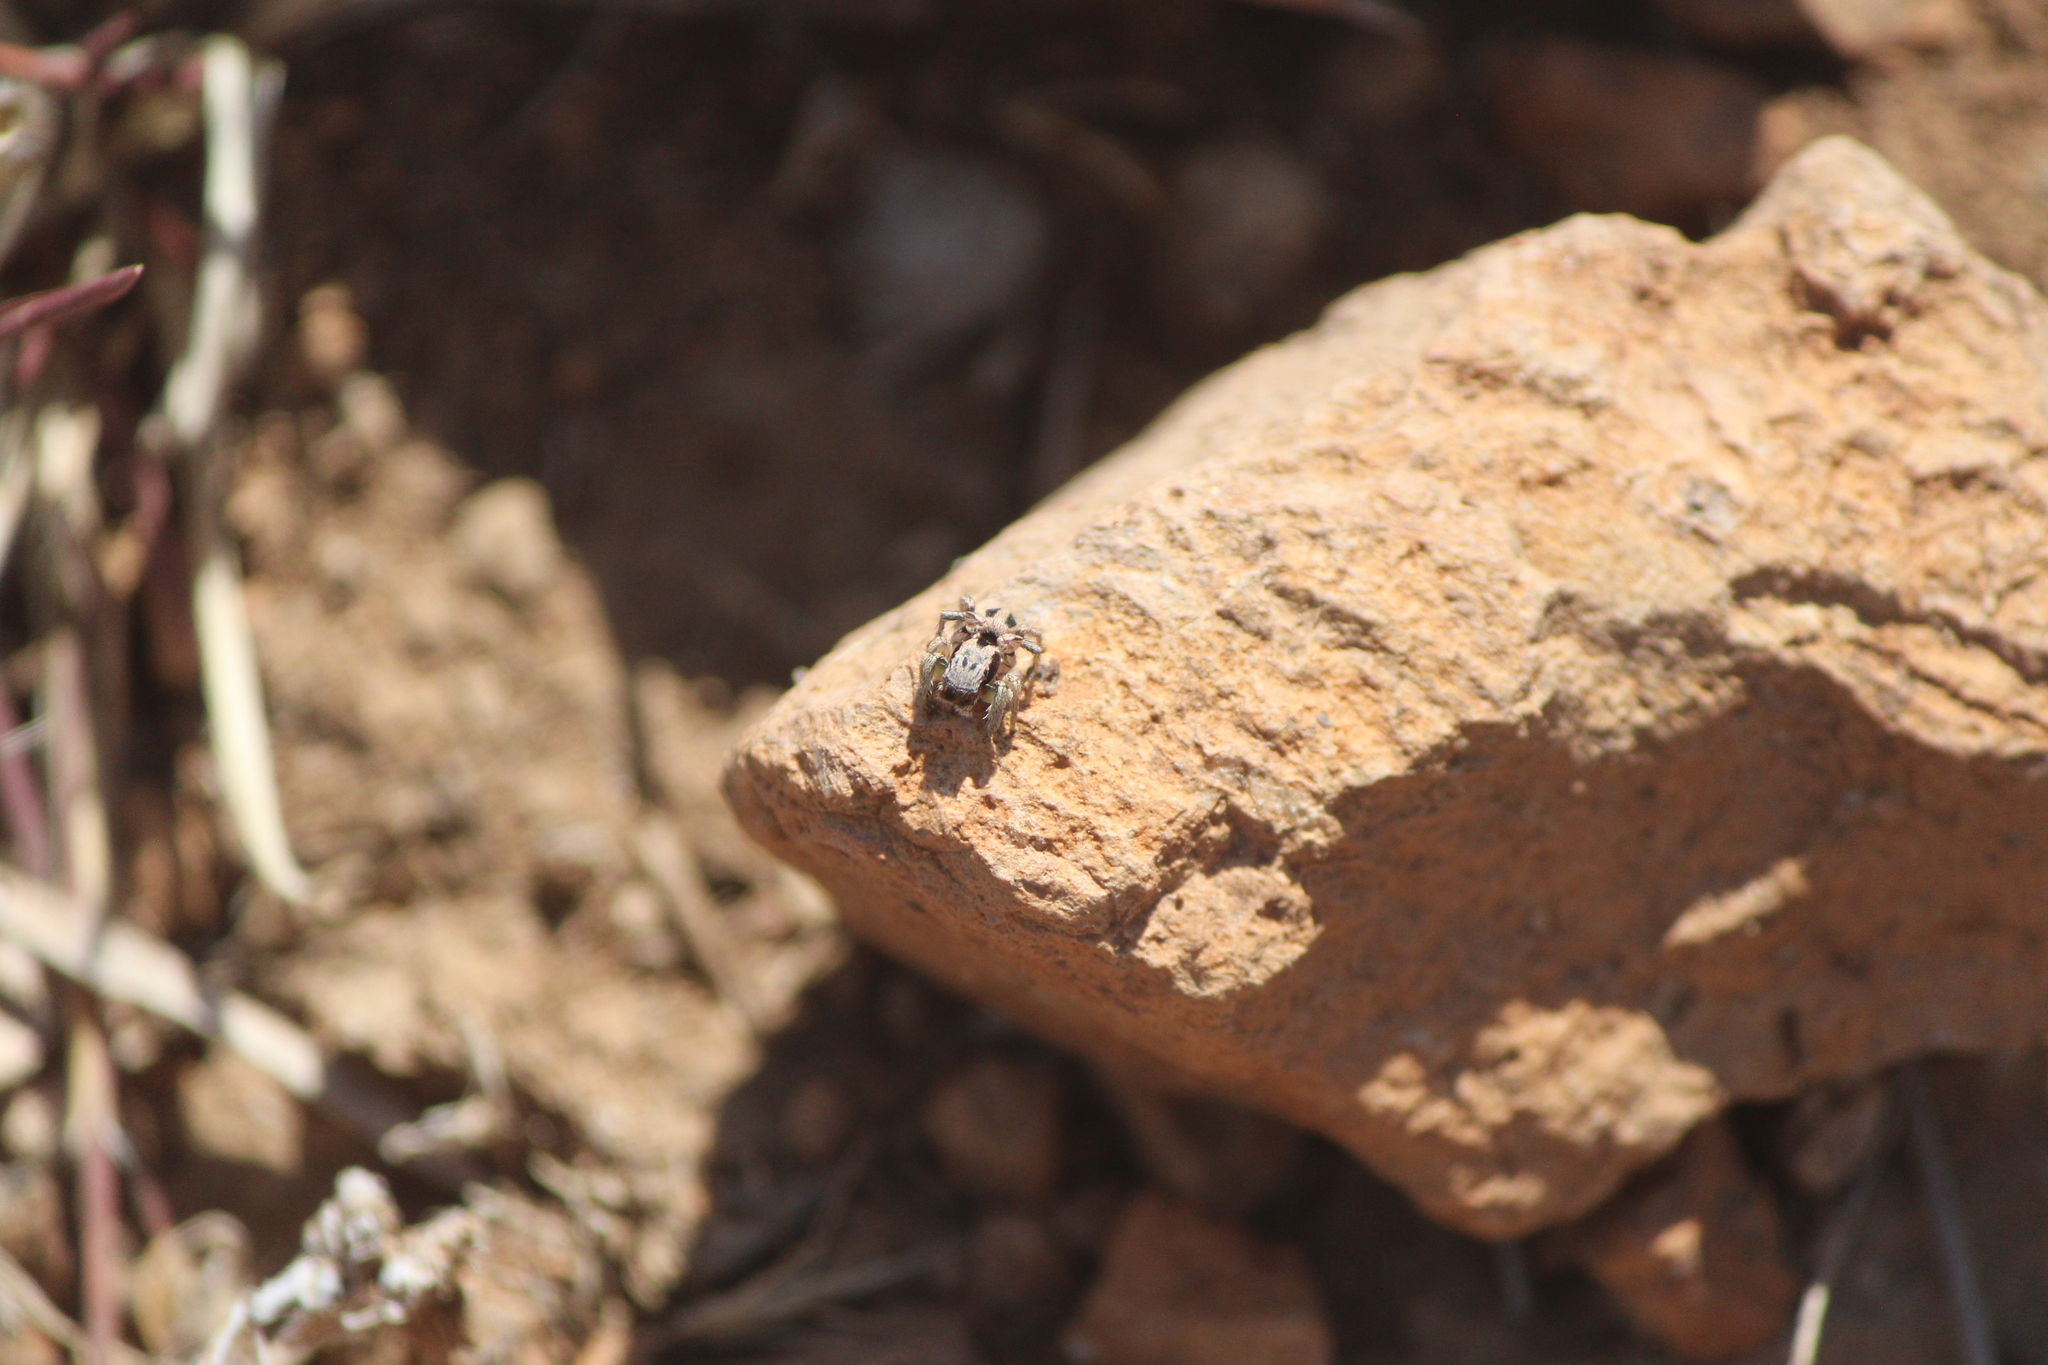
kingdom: Animalia
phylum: Arthropoda
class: Arachnida
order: Araneae
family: Salticidae
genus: Habronattus
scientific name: Habronattus virgulatus
